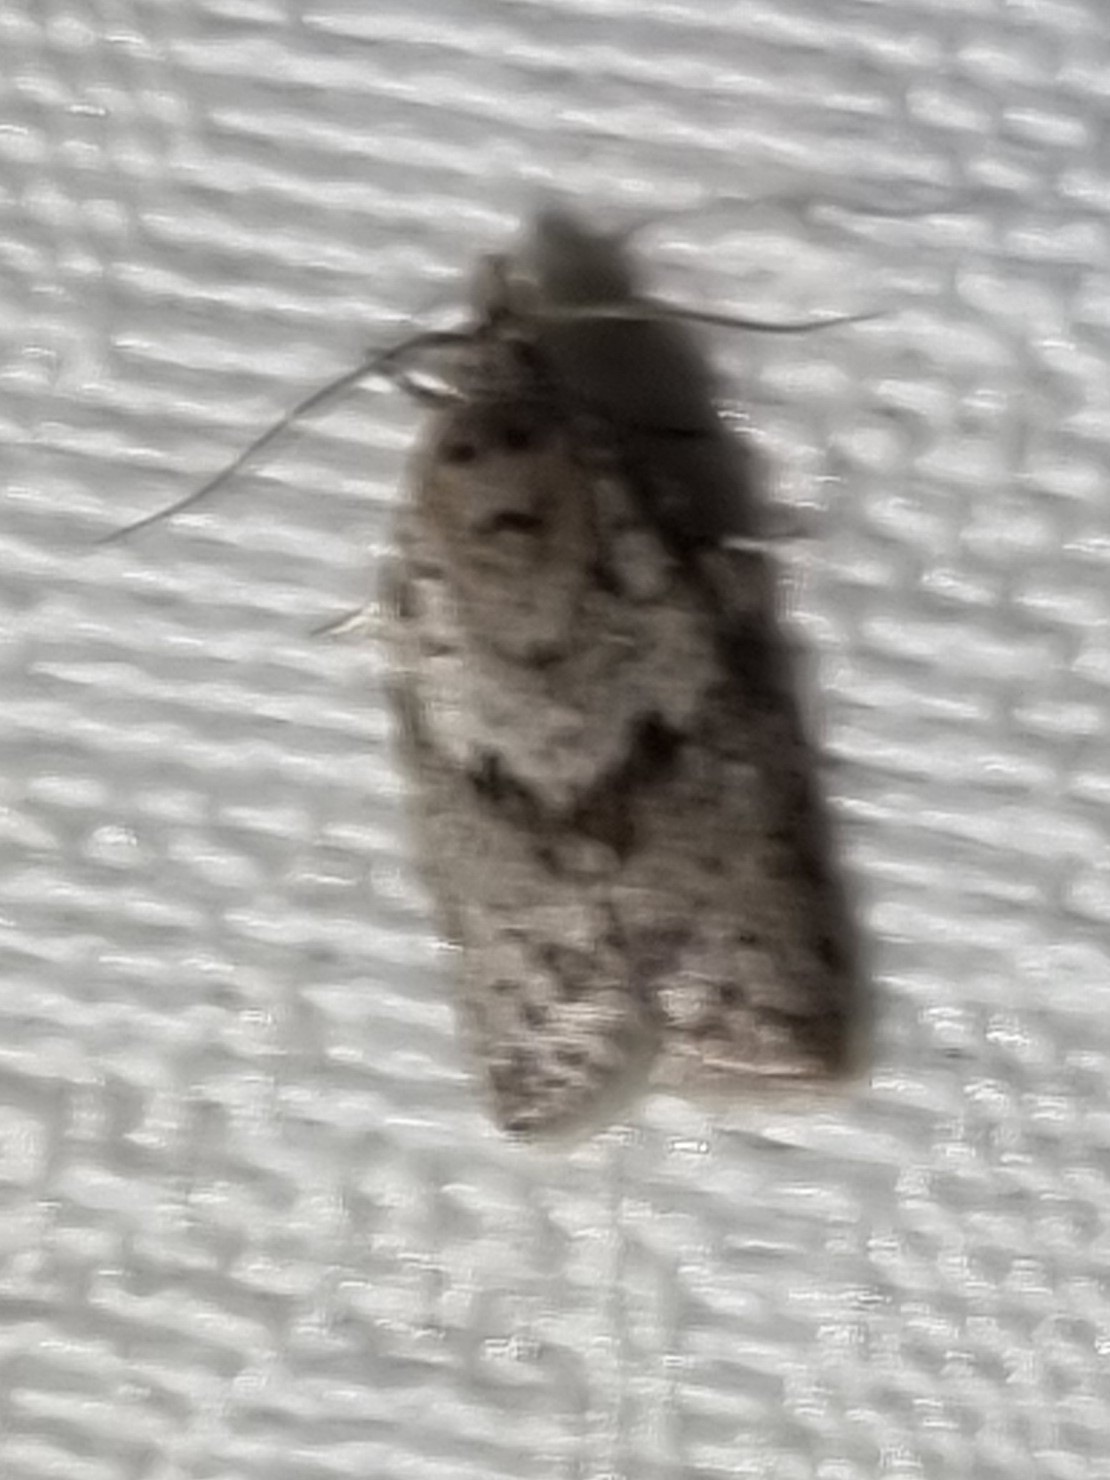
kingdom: Animalia
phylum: Arthropoda
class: Insecta
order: Lepidoptera
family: Tortricidae
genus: Isotenes
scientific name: Isotenes miserana
